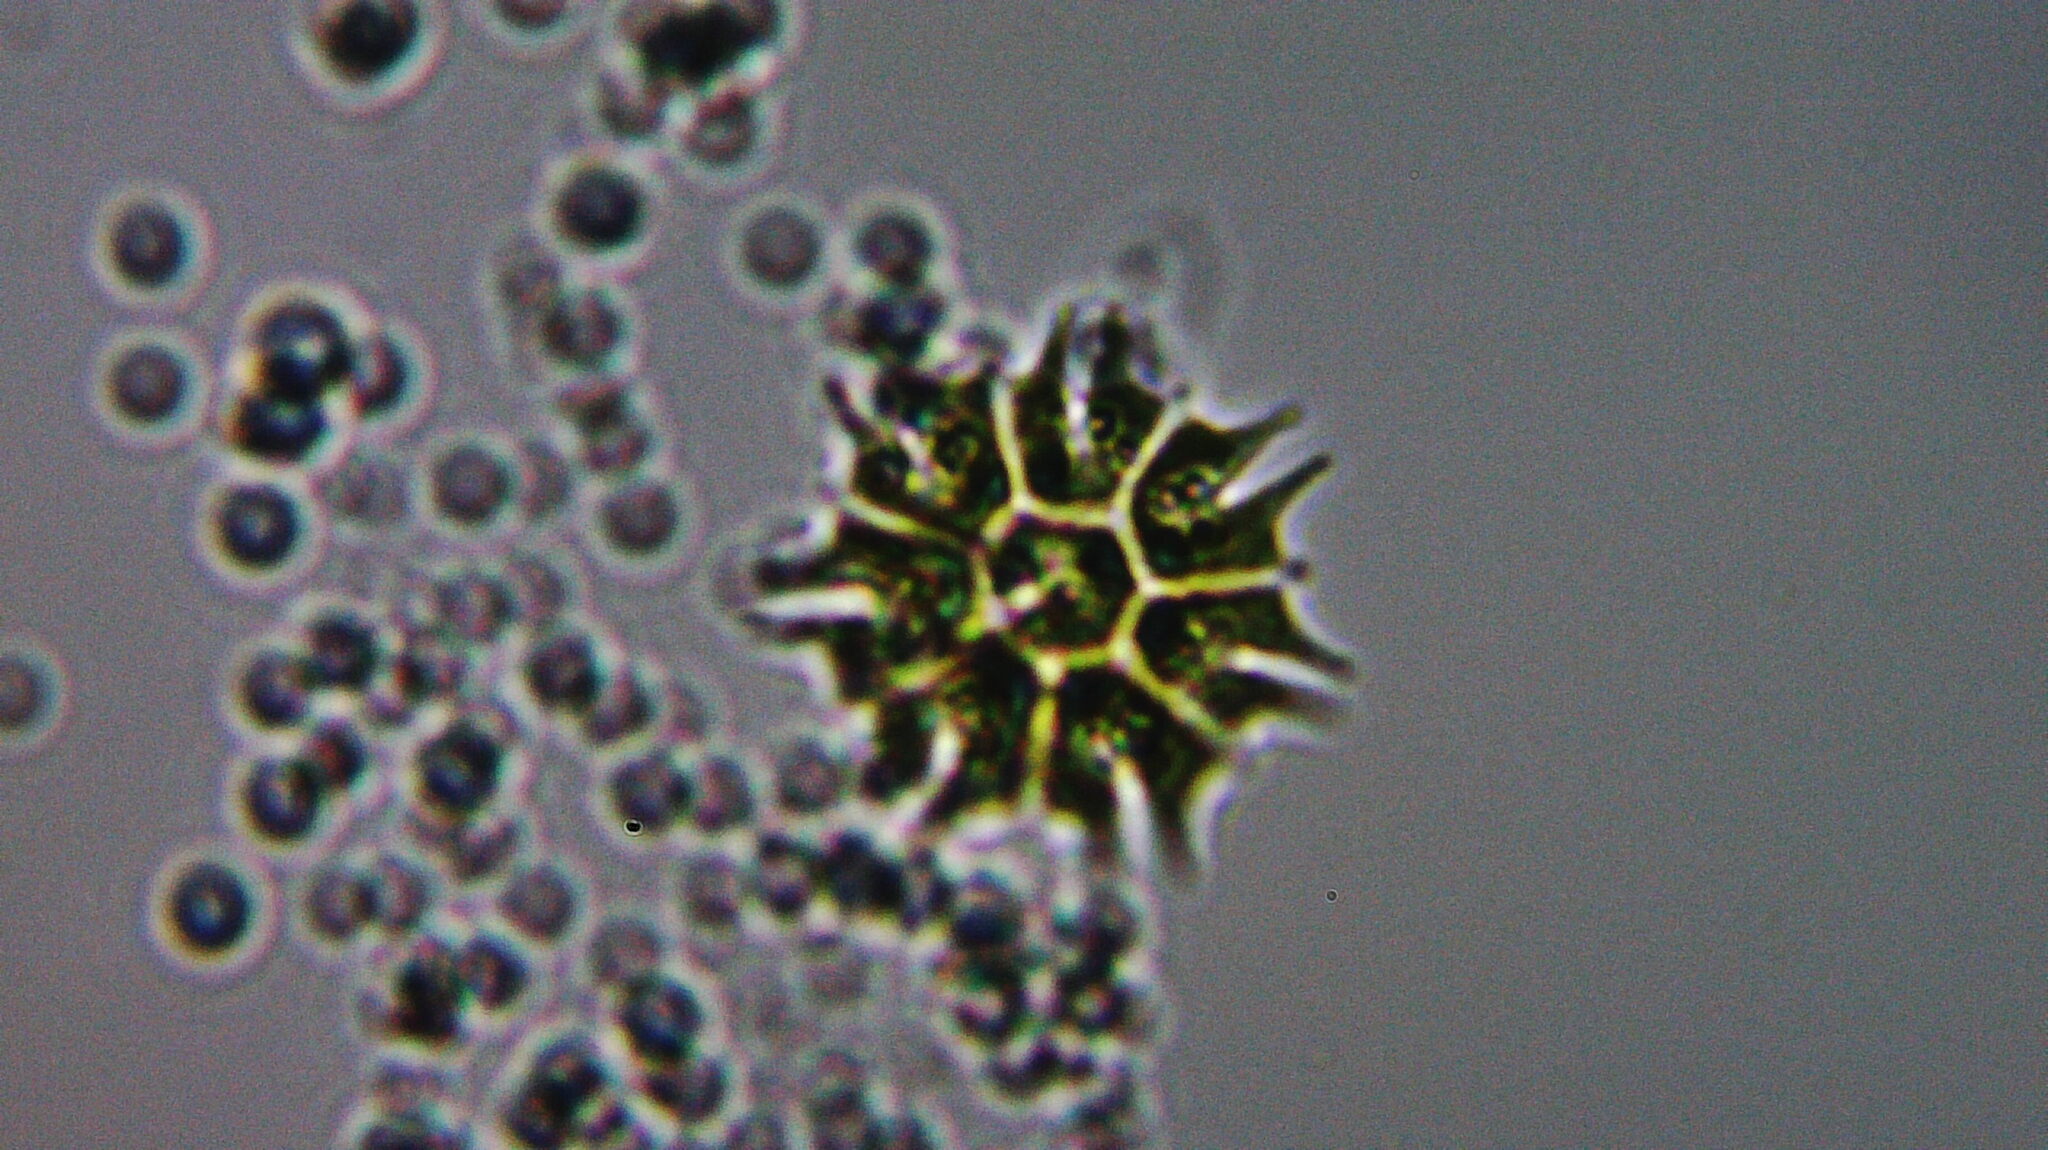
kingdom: Plantae
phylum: Chlorophyta
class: Chlorophyceae
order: Sphaeropleales
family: Hydrodictyaceae
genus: Stauridium
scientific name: Stauridium tetras
